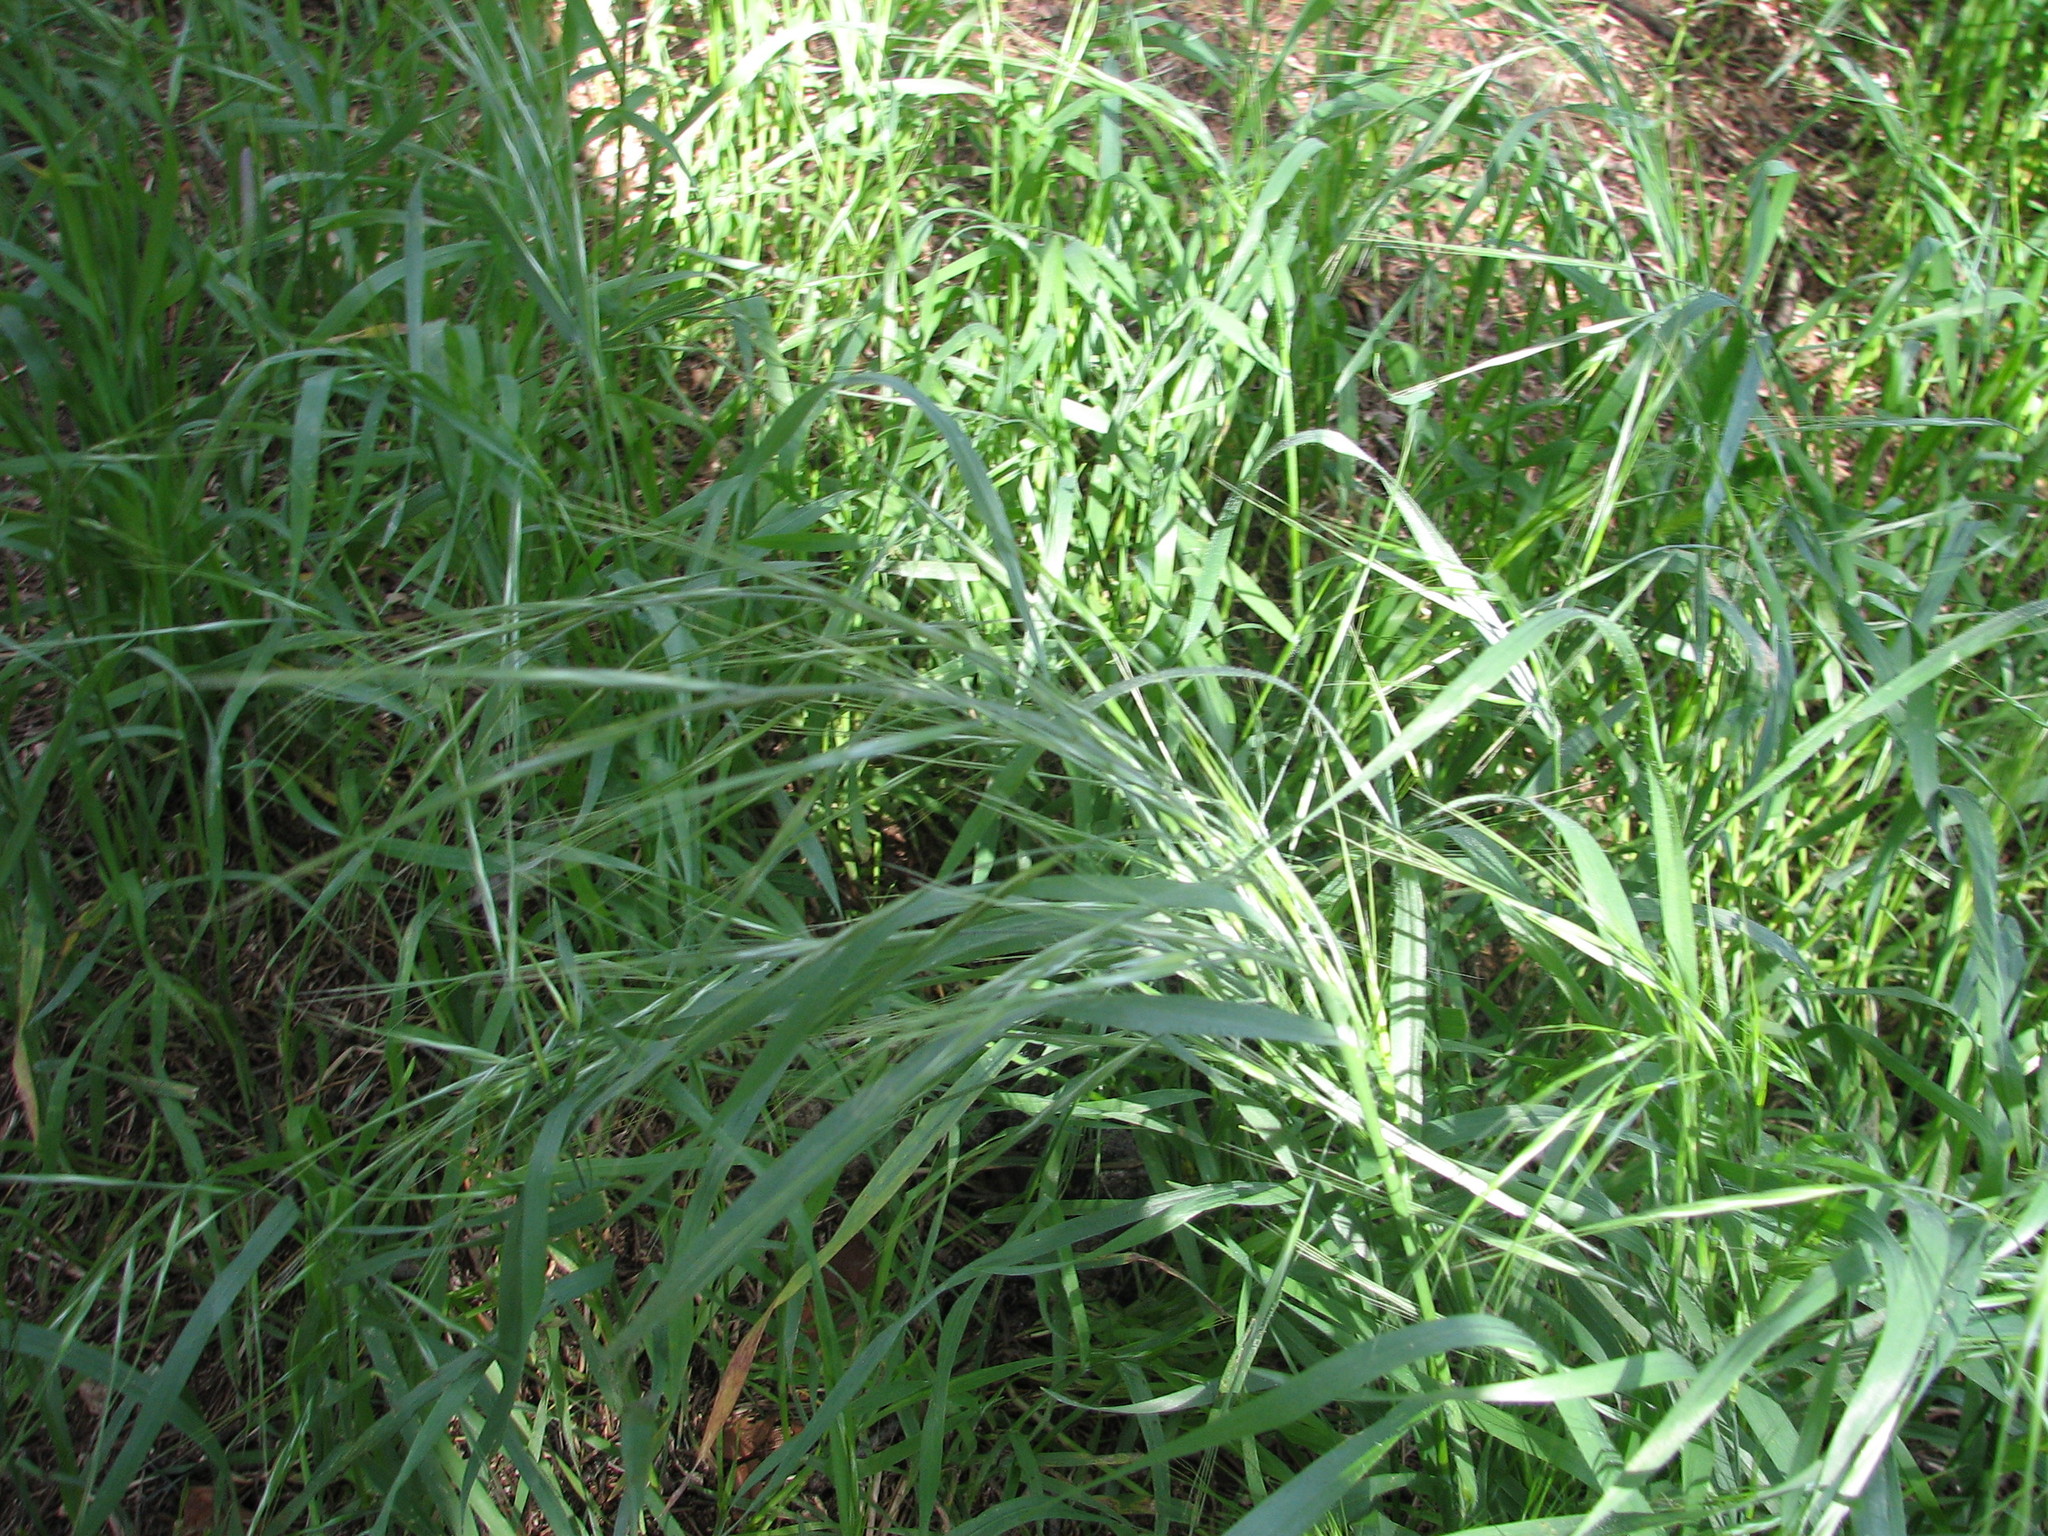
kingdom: Plantae
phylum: Tracheophyta
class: Liliopsida
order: Poales
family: Poaceae
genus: Bromus
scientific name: Bromus diandrus
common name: Ripgut brome
